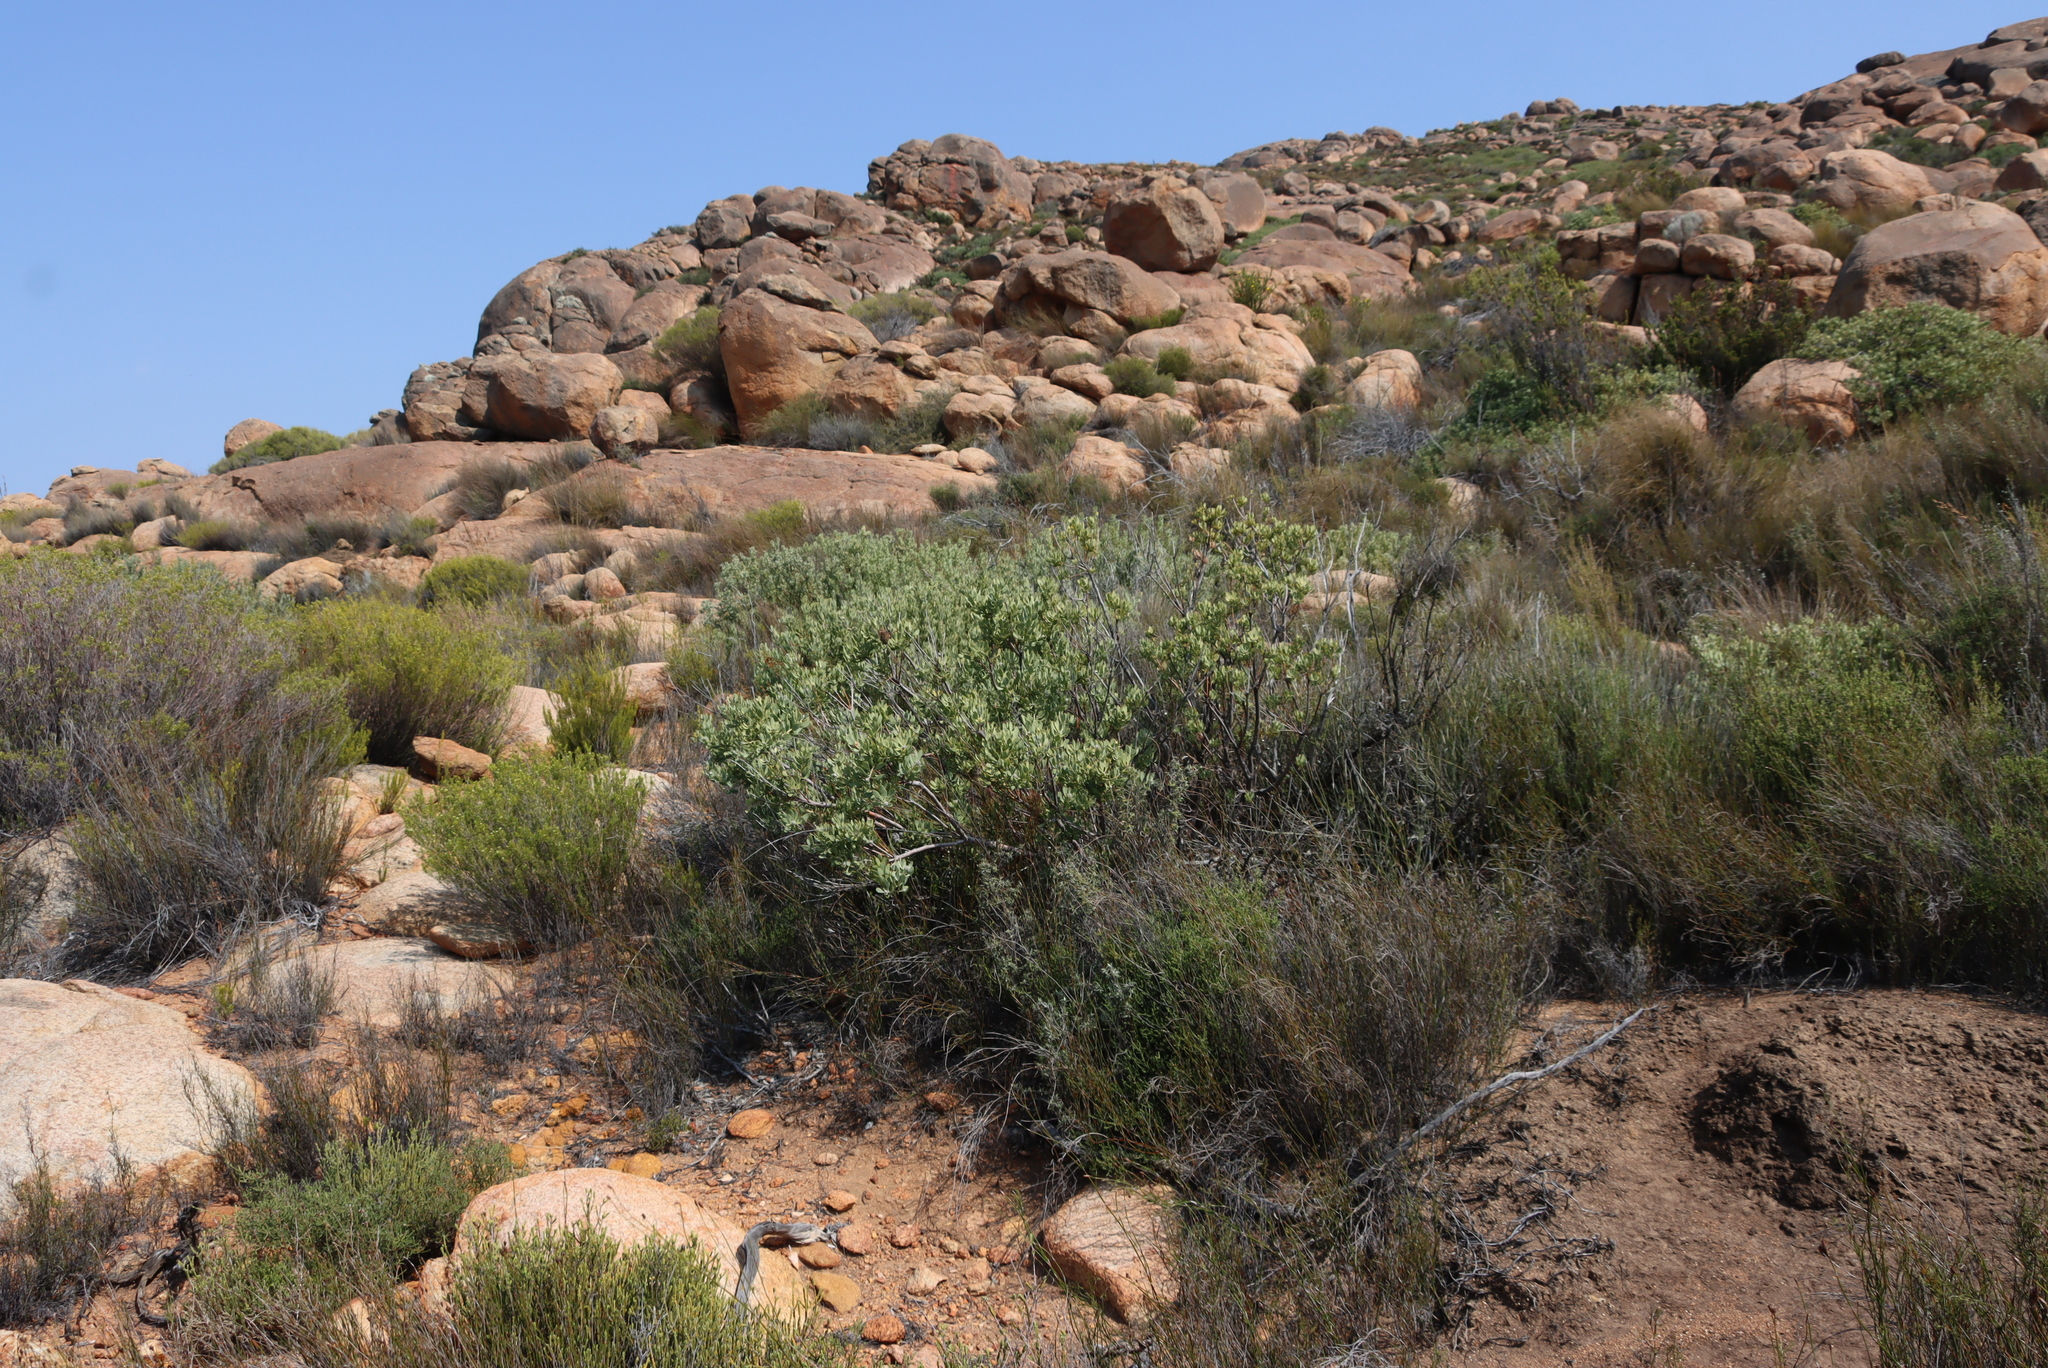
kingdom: Plantae
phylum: Tracheophyta
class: Magnoliopsida
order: Proteales
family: Proteaceae
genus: Vexatorella
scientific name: Vexatorella alpina
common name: Kamiesberg vexator
